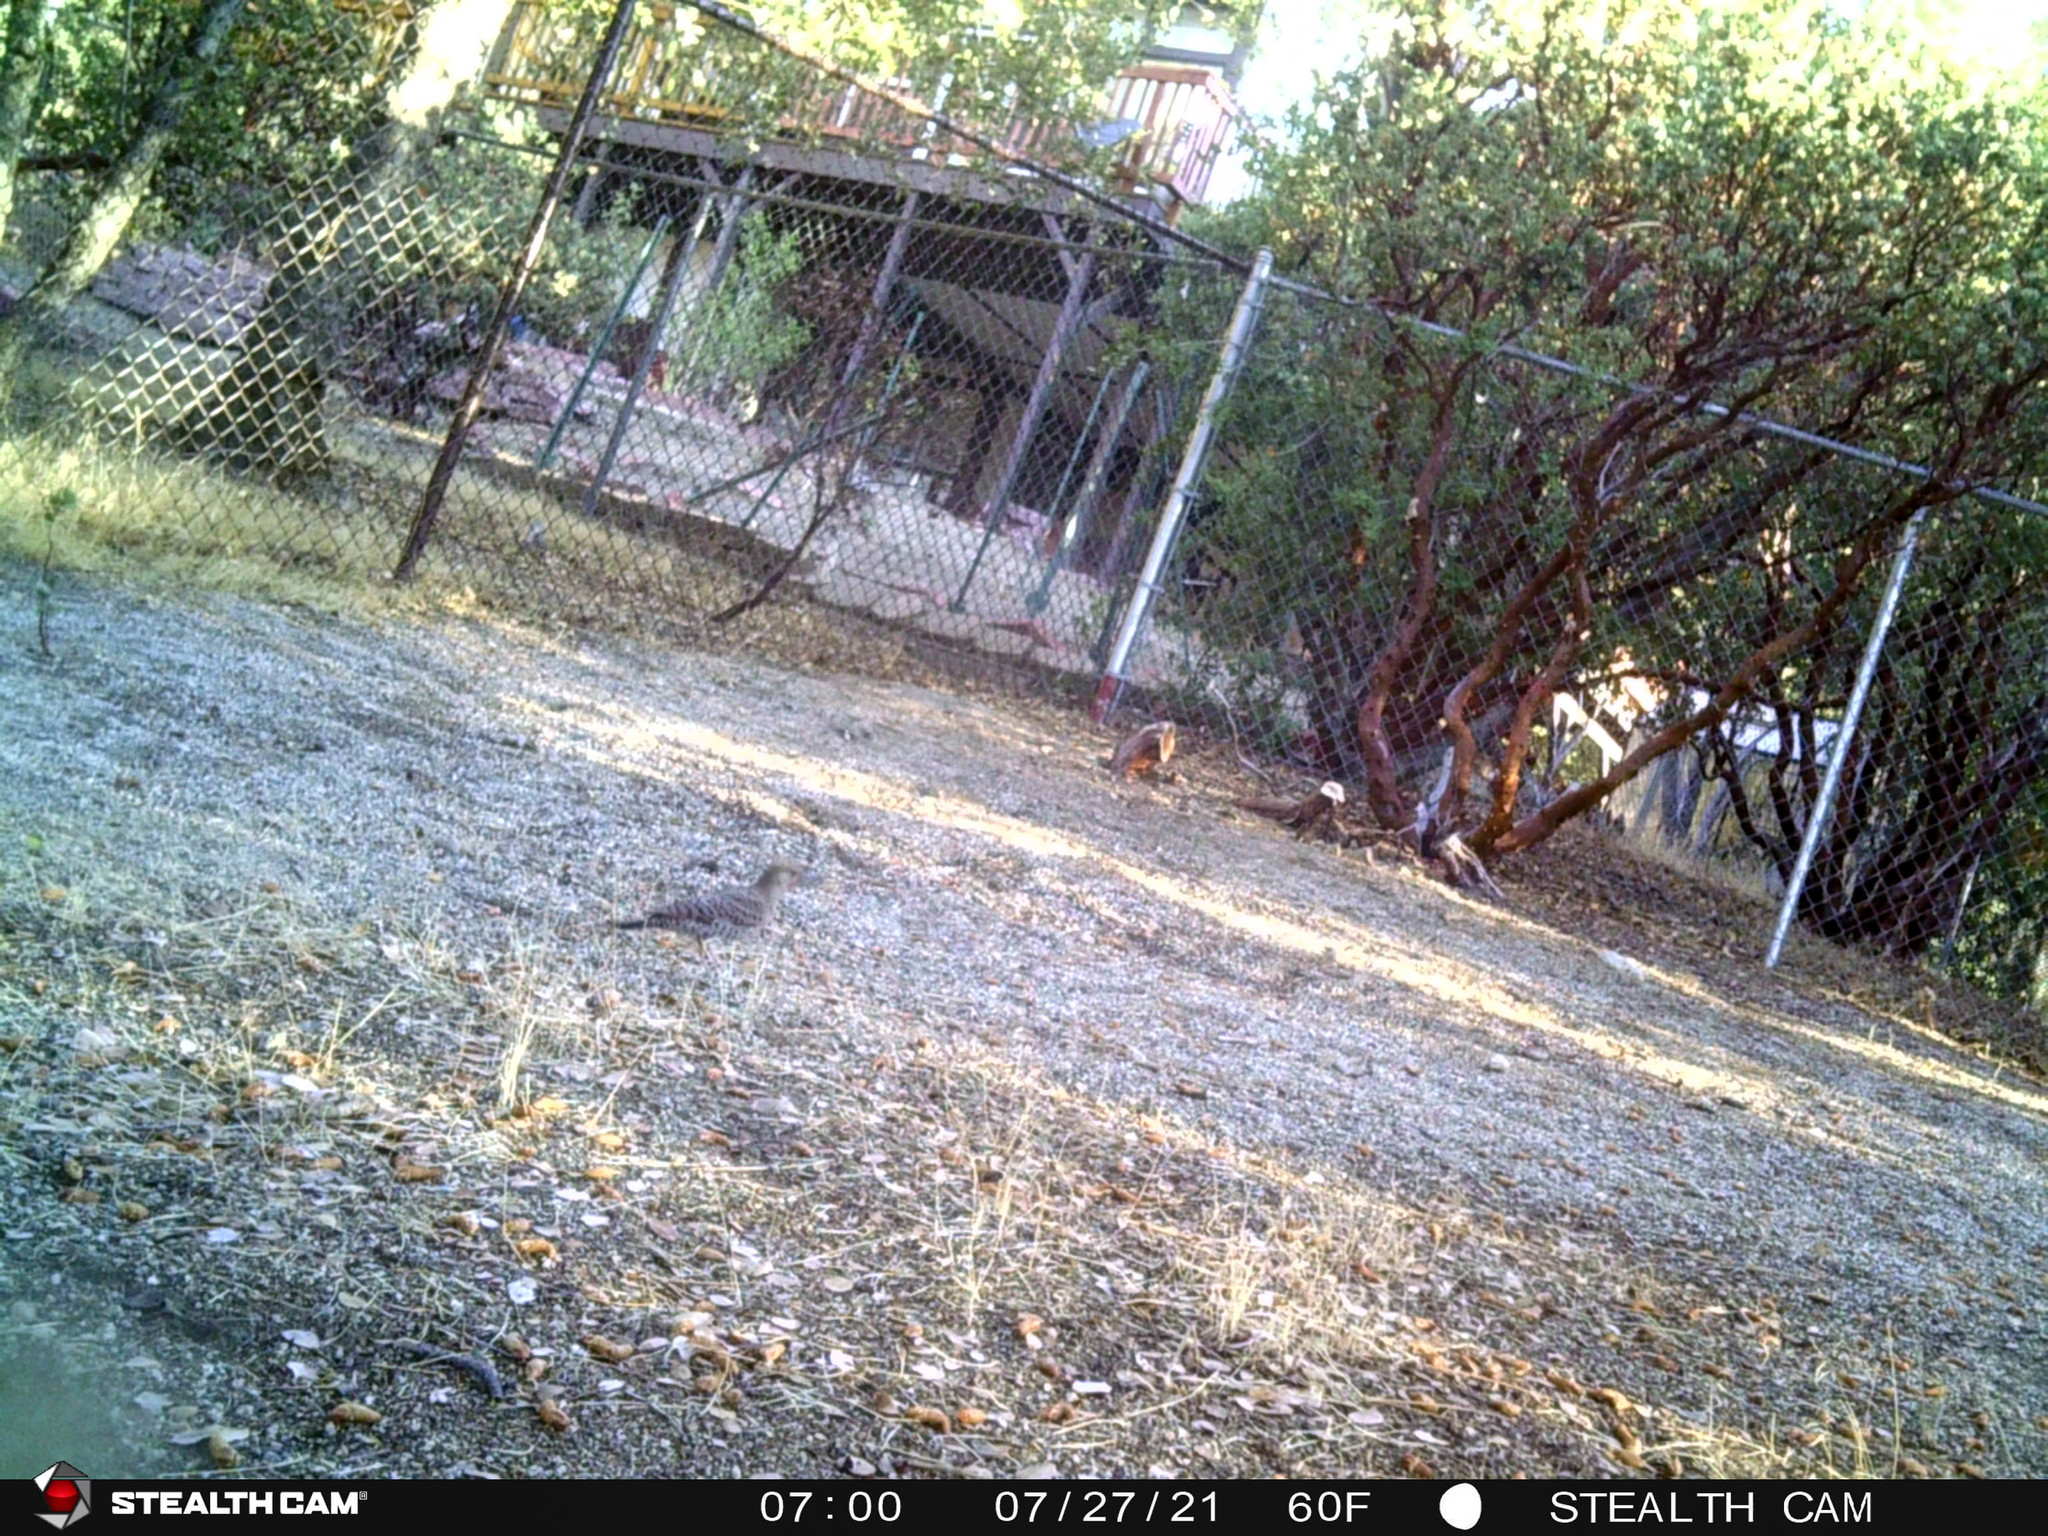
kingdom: Animalia
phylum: Chordata
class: Aves
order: Piciformes
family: Picidae
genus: Colaptes
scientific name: Colaptes auratus
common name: Northern flicker
